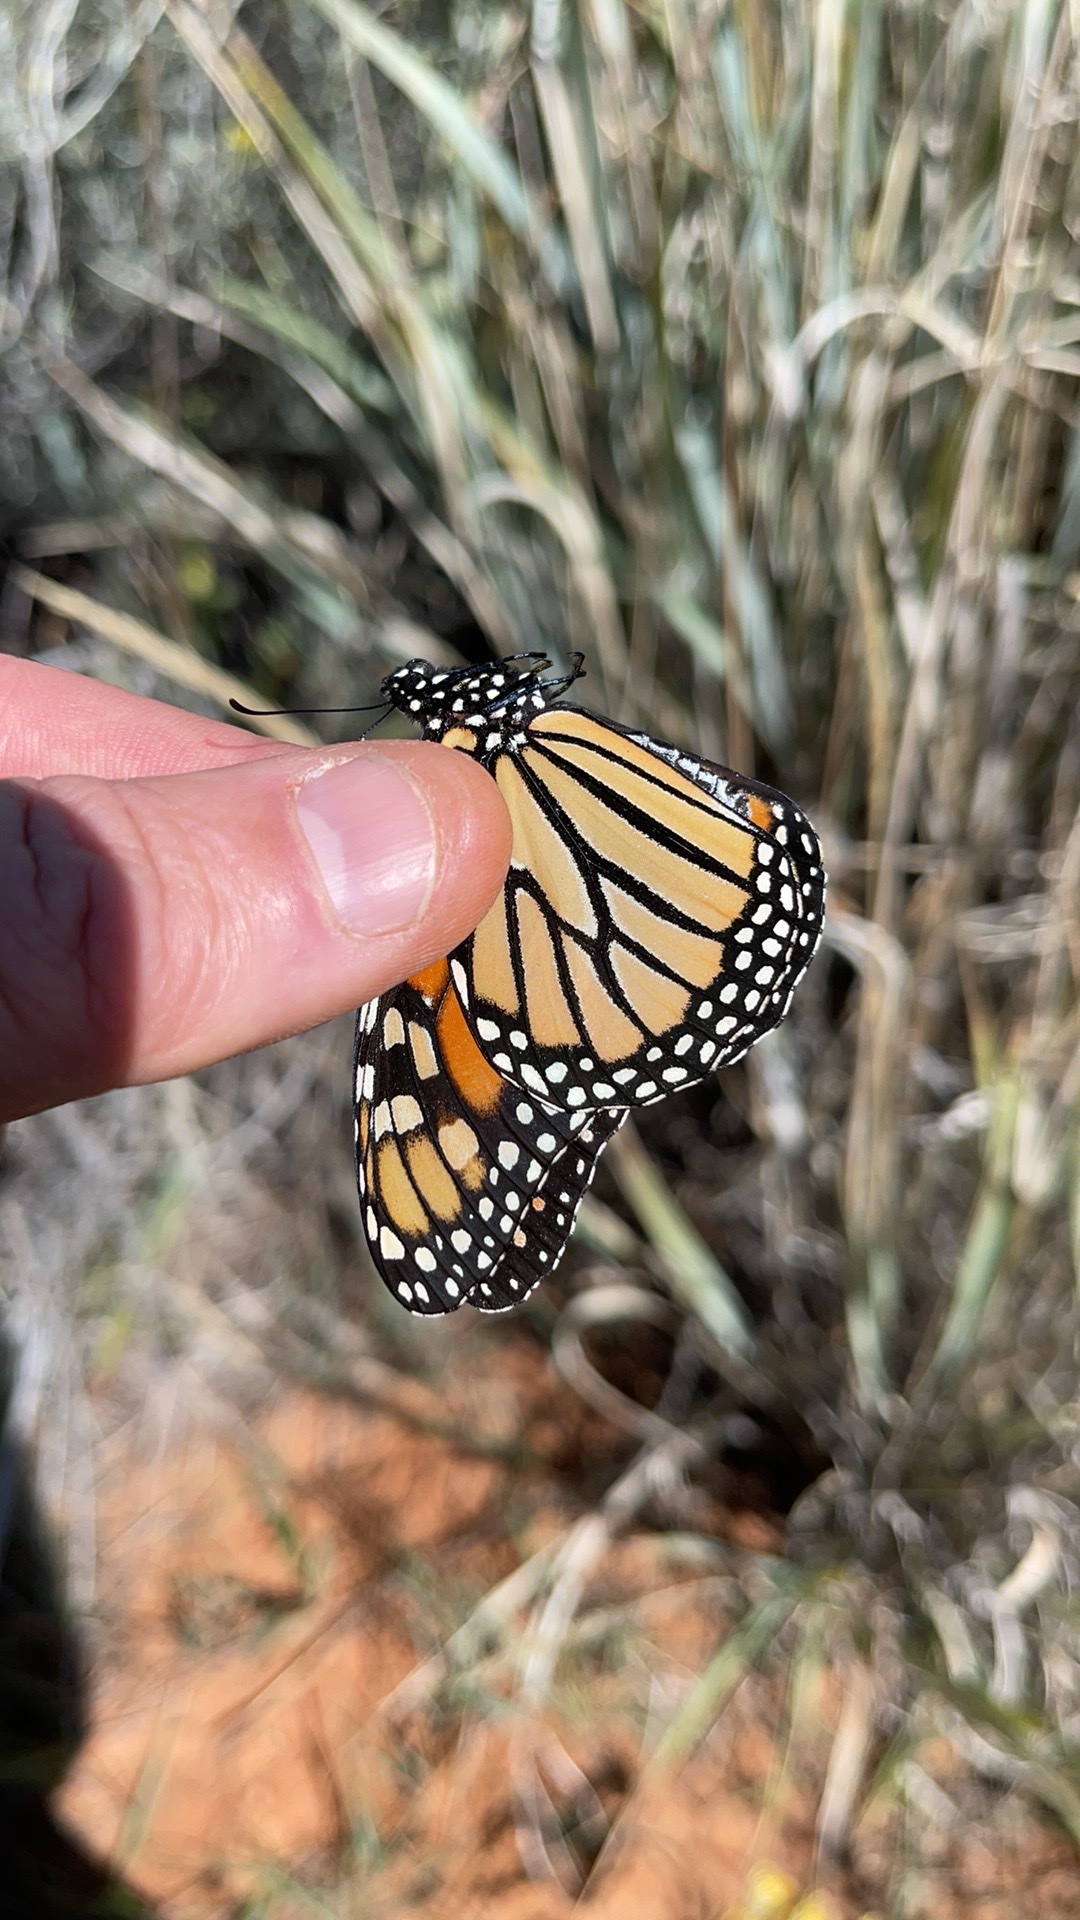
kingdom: Animalia
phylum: Arthropoda
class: Insecta
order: Lepidoptera
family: Nymphalidae
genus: Danaus
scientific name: Danaus plexippus
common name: Monarch
